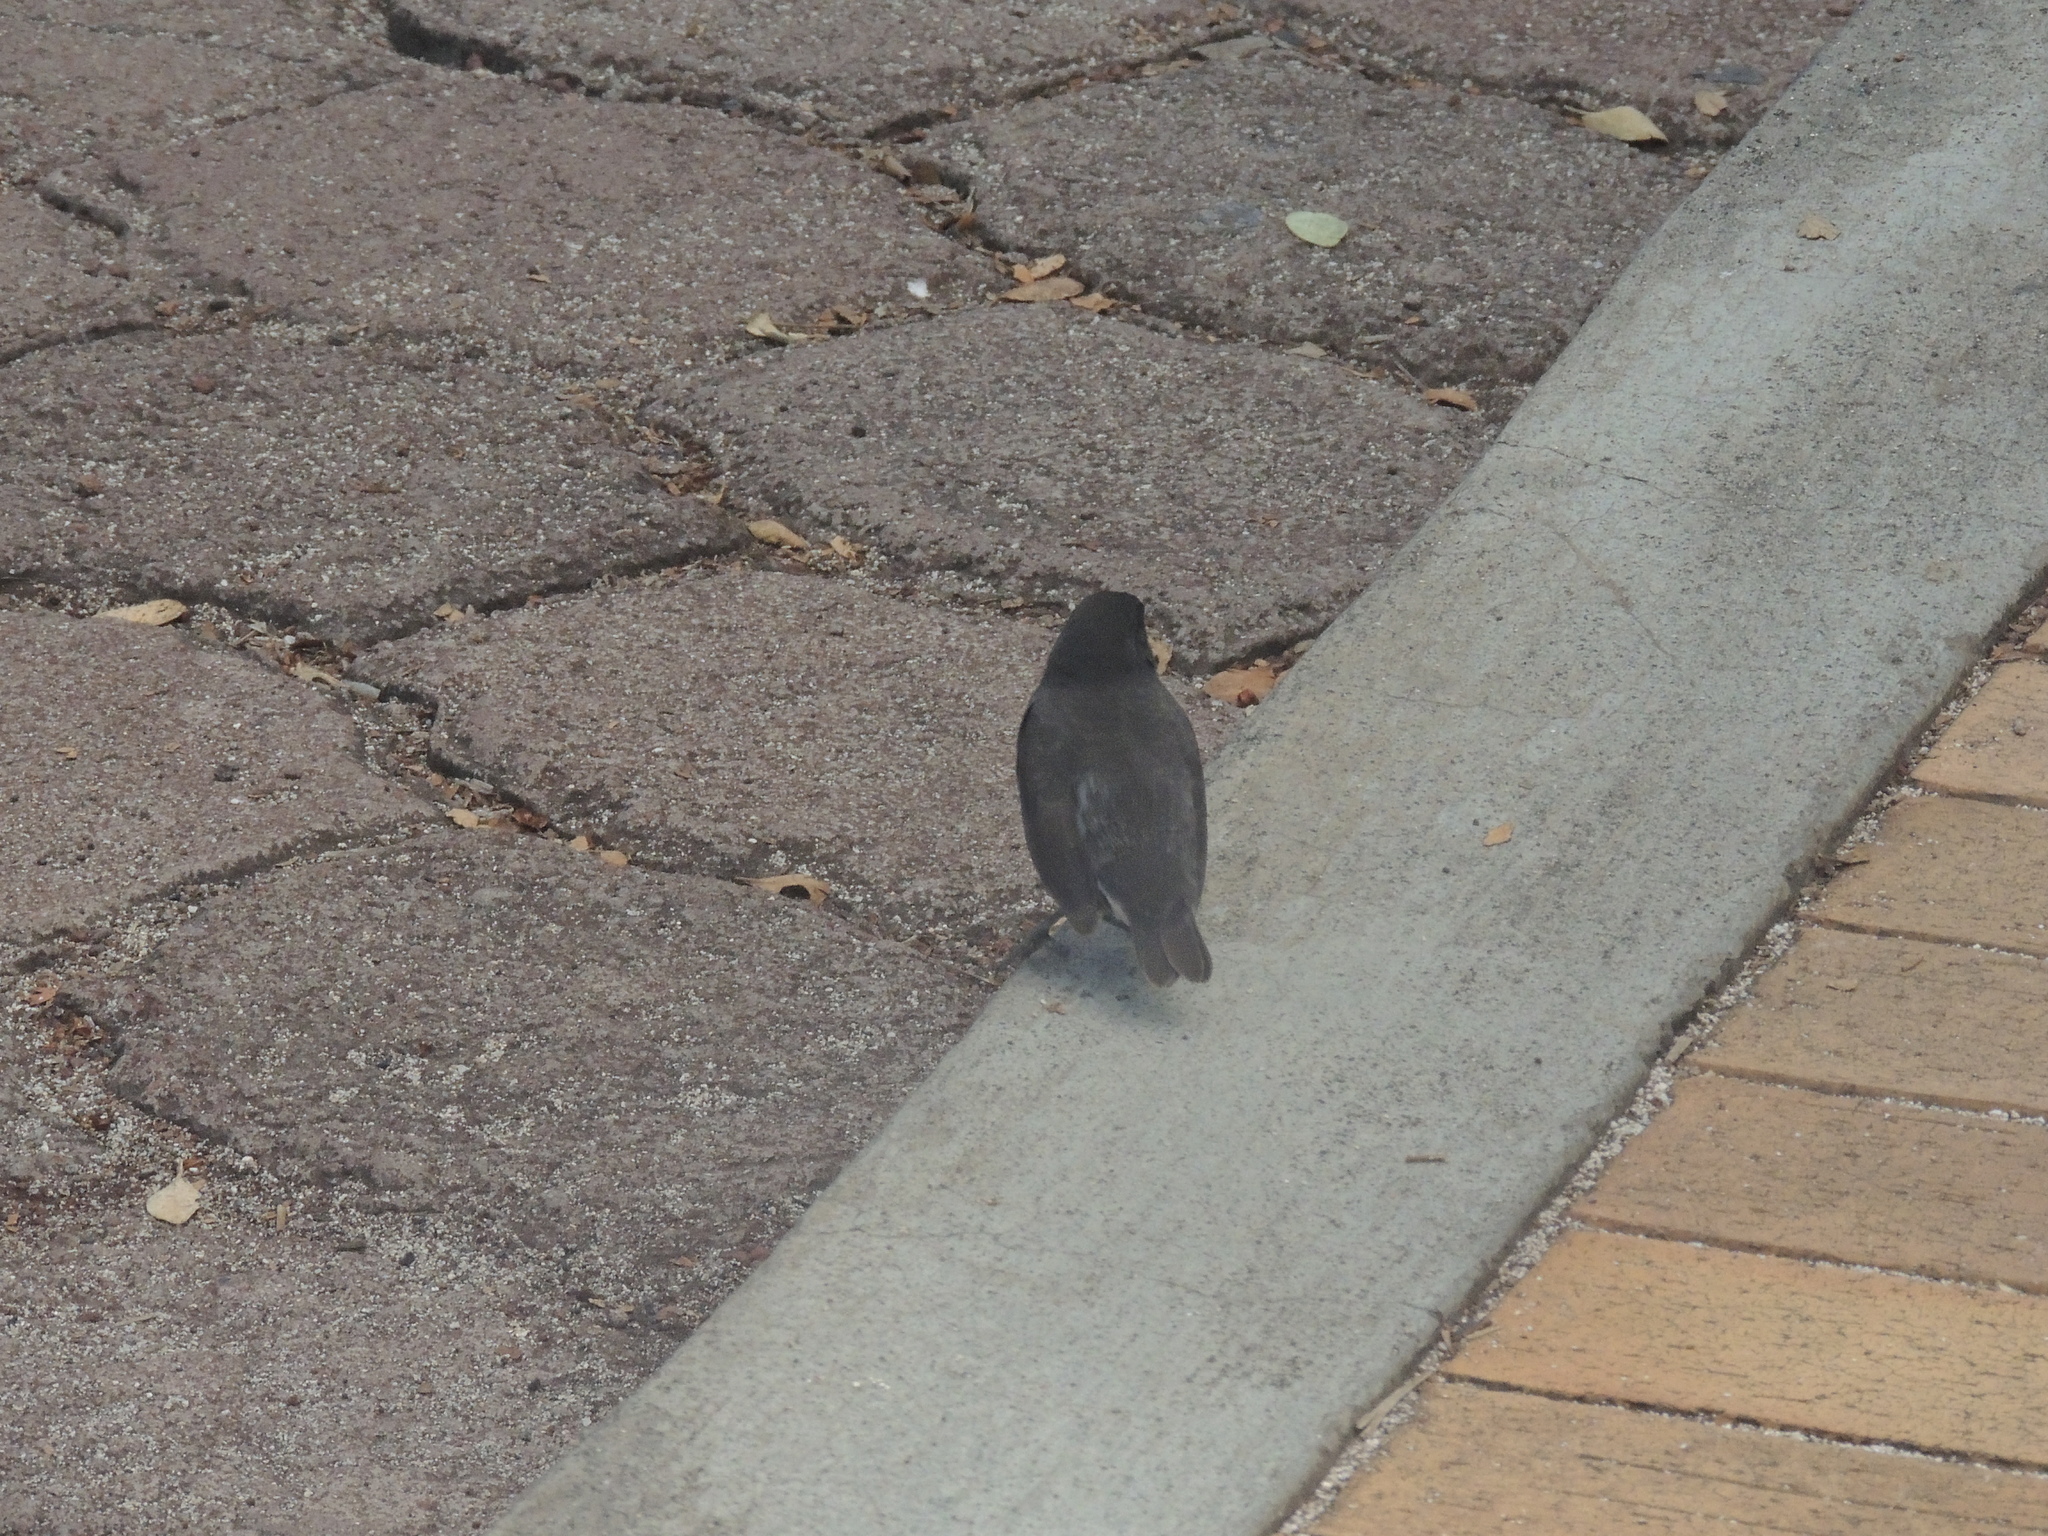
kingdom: Animalia
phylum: Chordata
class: Aves
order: Passeriformes
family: Thraupidae
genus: Geospiza
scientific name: Geospiza fuliginosa
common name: Small ground finch
